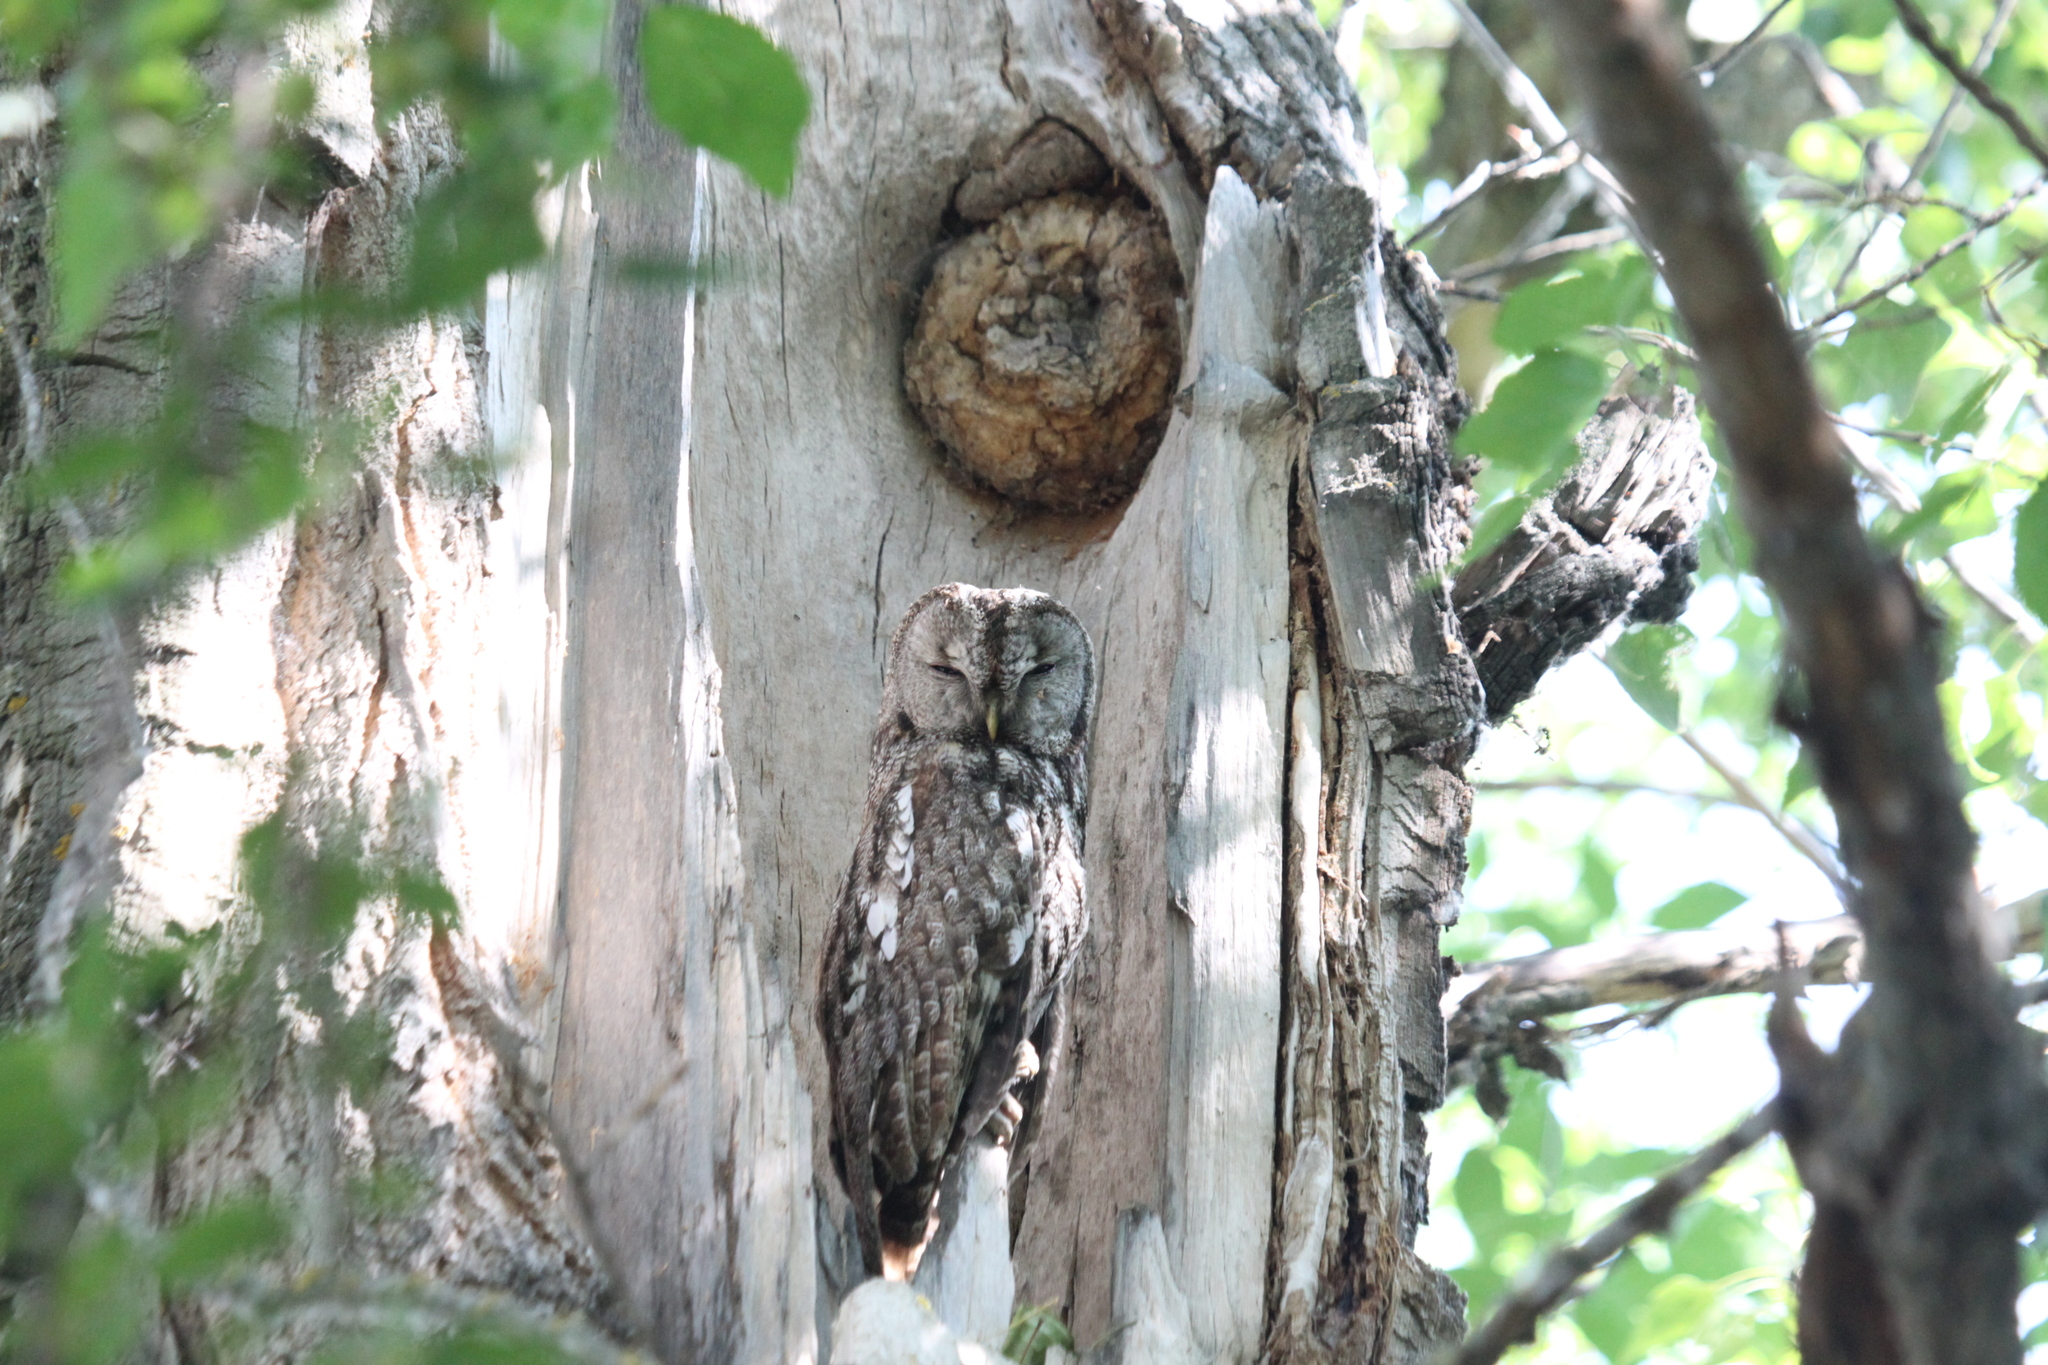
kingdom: Animalia
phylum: Chordata
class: Aves
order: Strigiformes
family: Strigidae
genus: Strix
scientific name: Strix aluco
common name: Tawny owl
